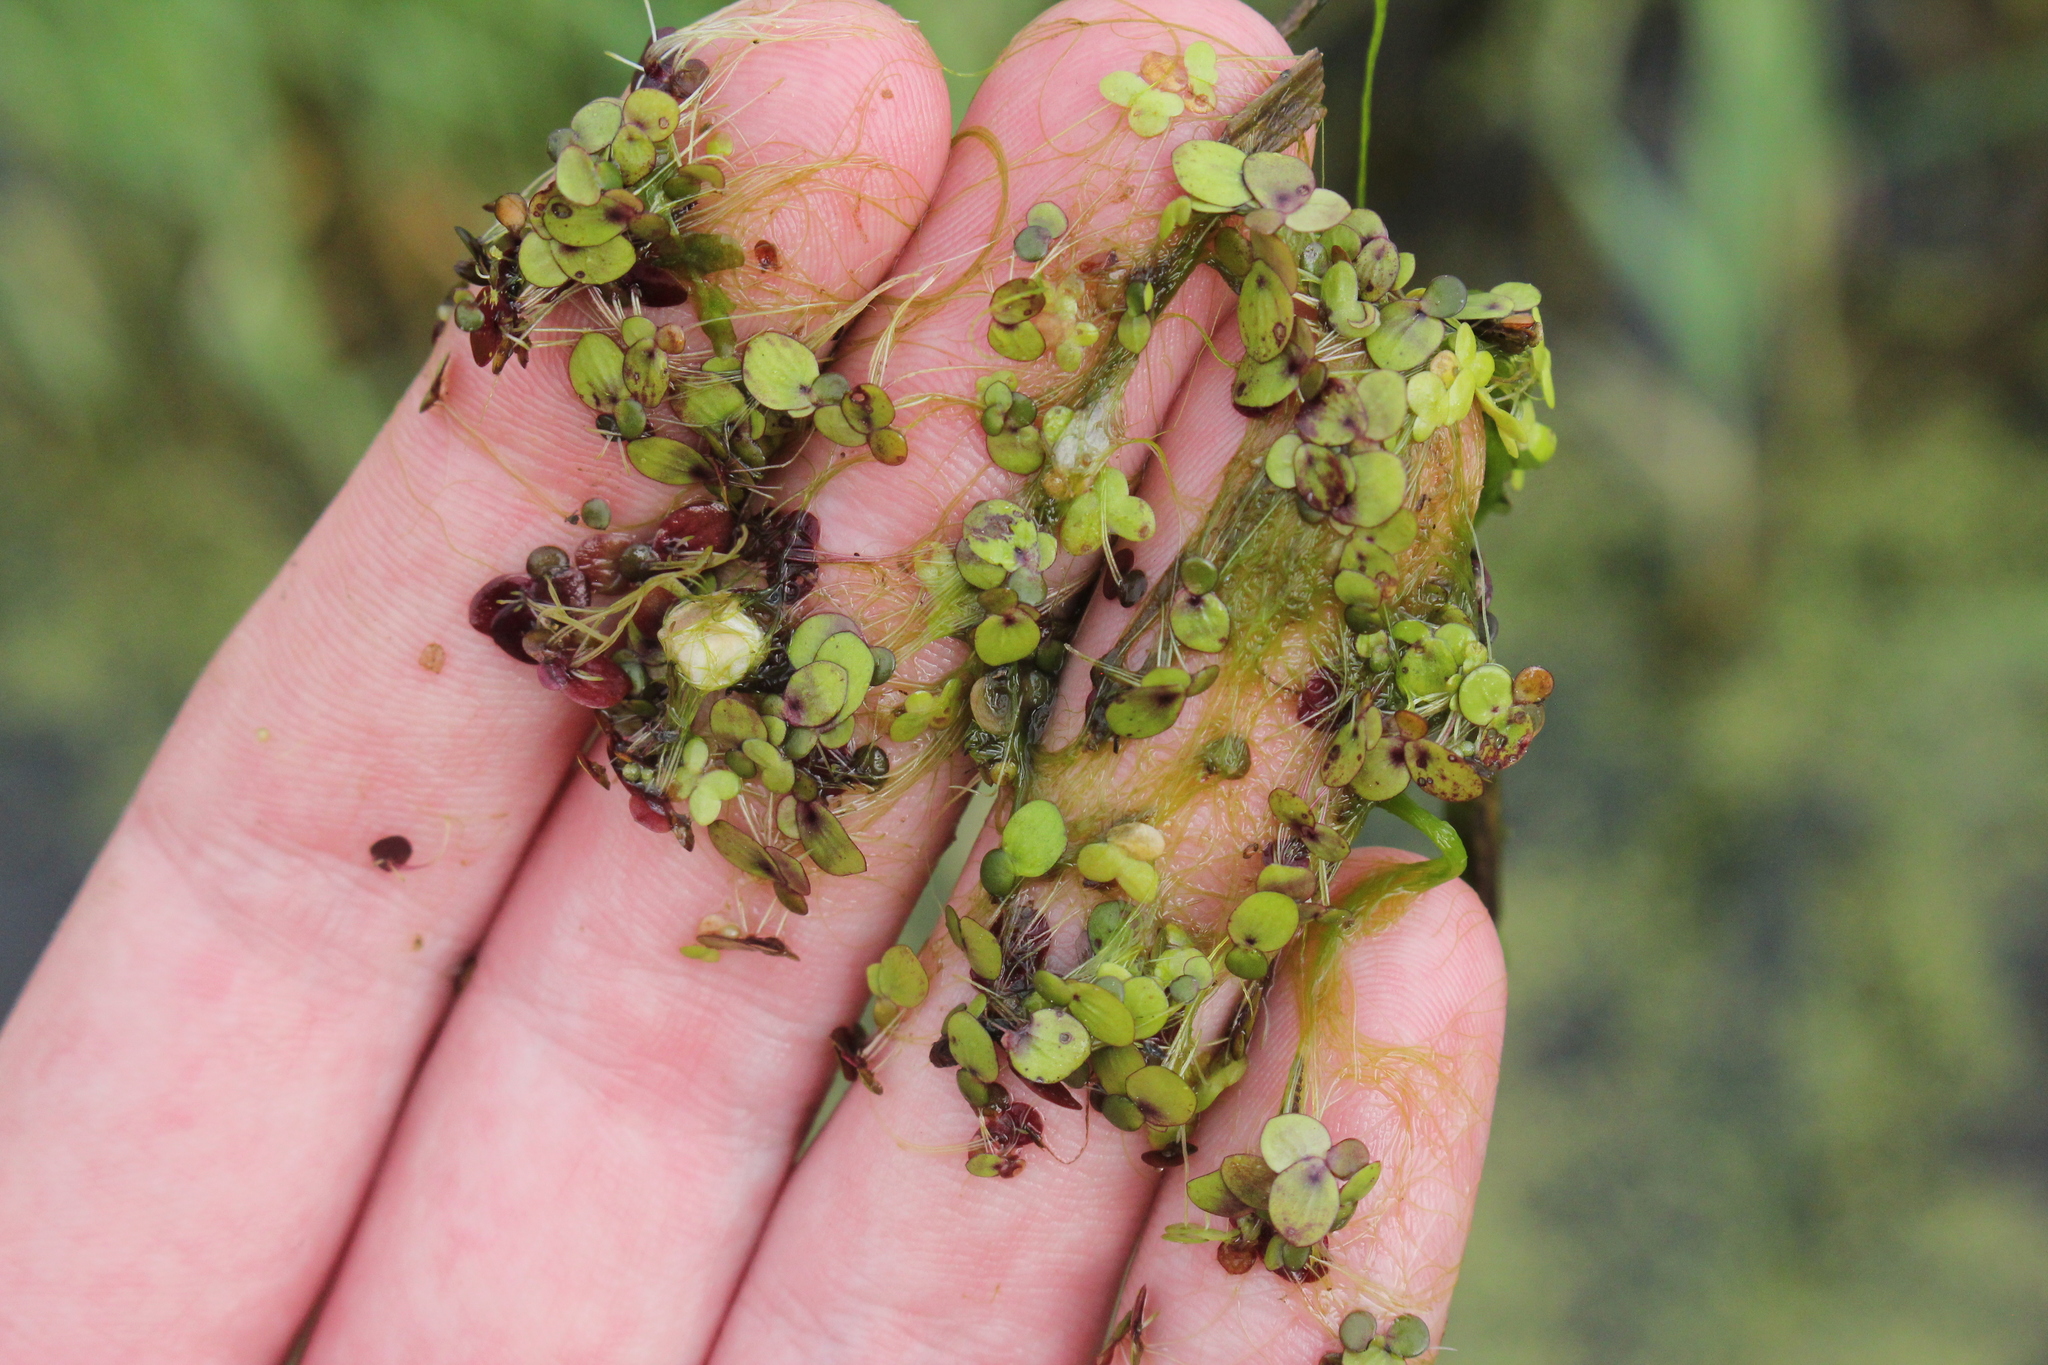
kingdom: Plantae
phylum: Tracheophyta
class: Liliopsida
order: Alismatales
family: Araceae
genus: Spirodela
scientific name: Spirodela polyrhiza
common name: Great duckweed
